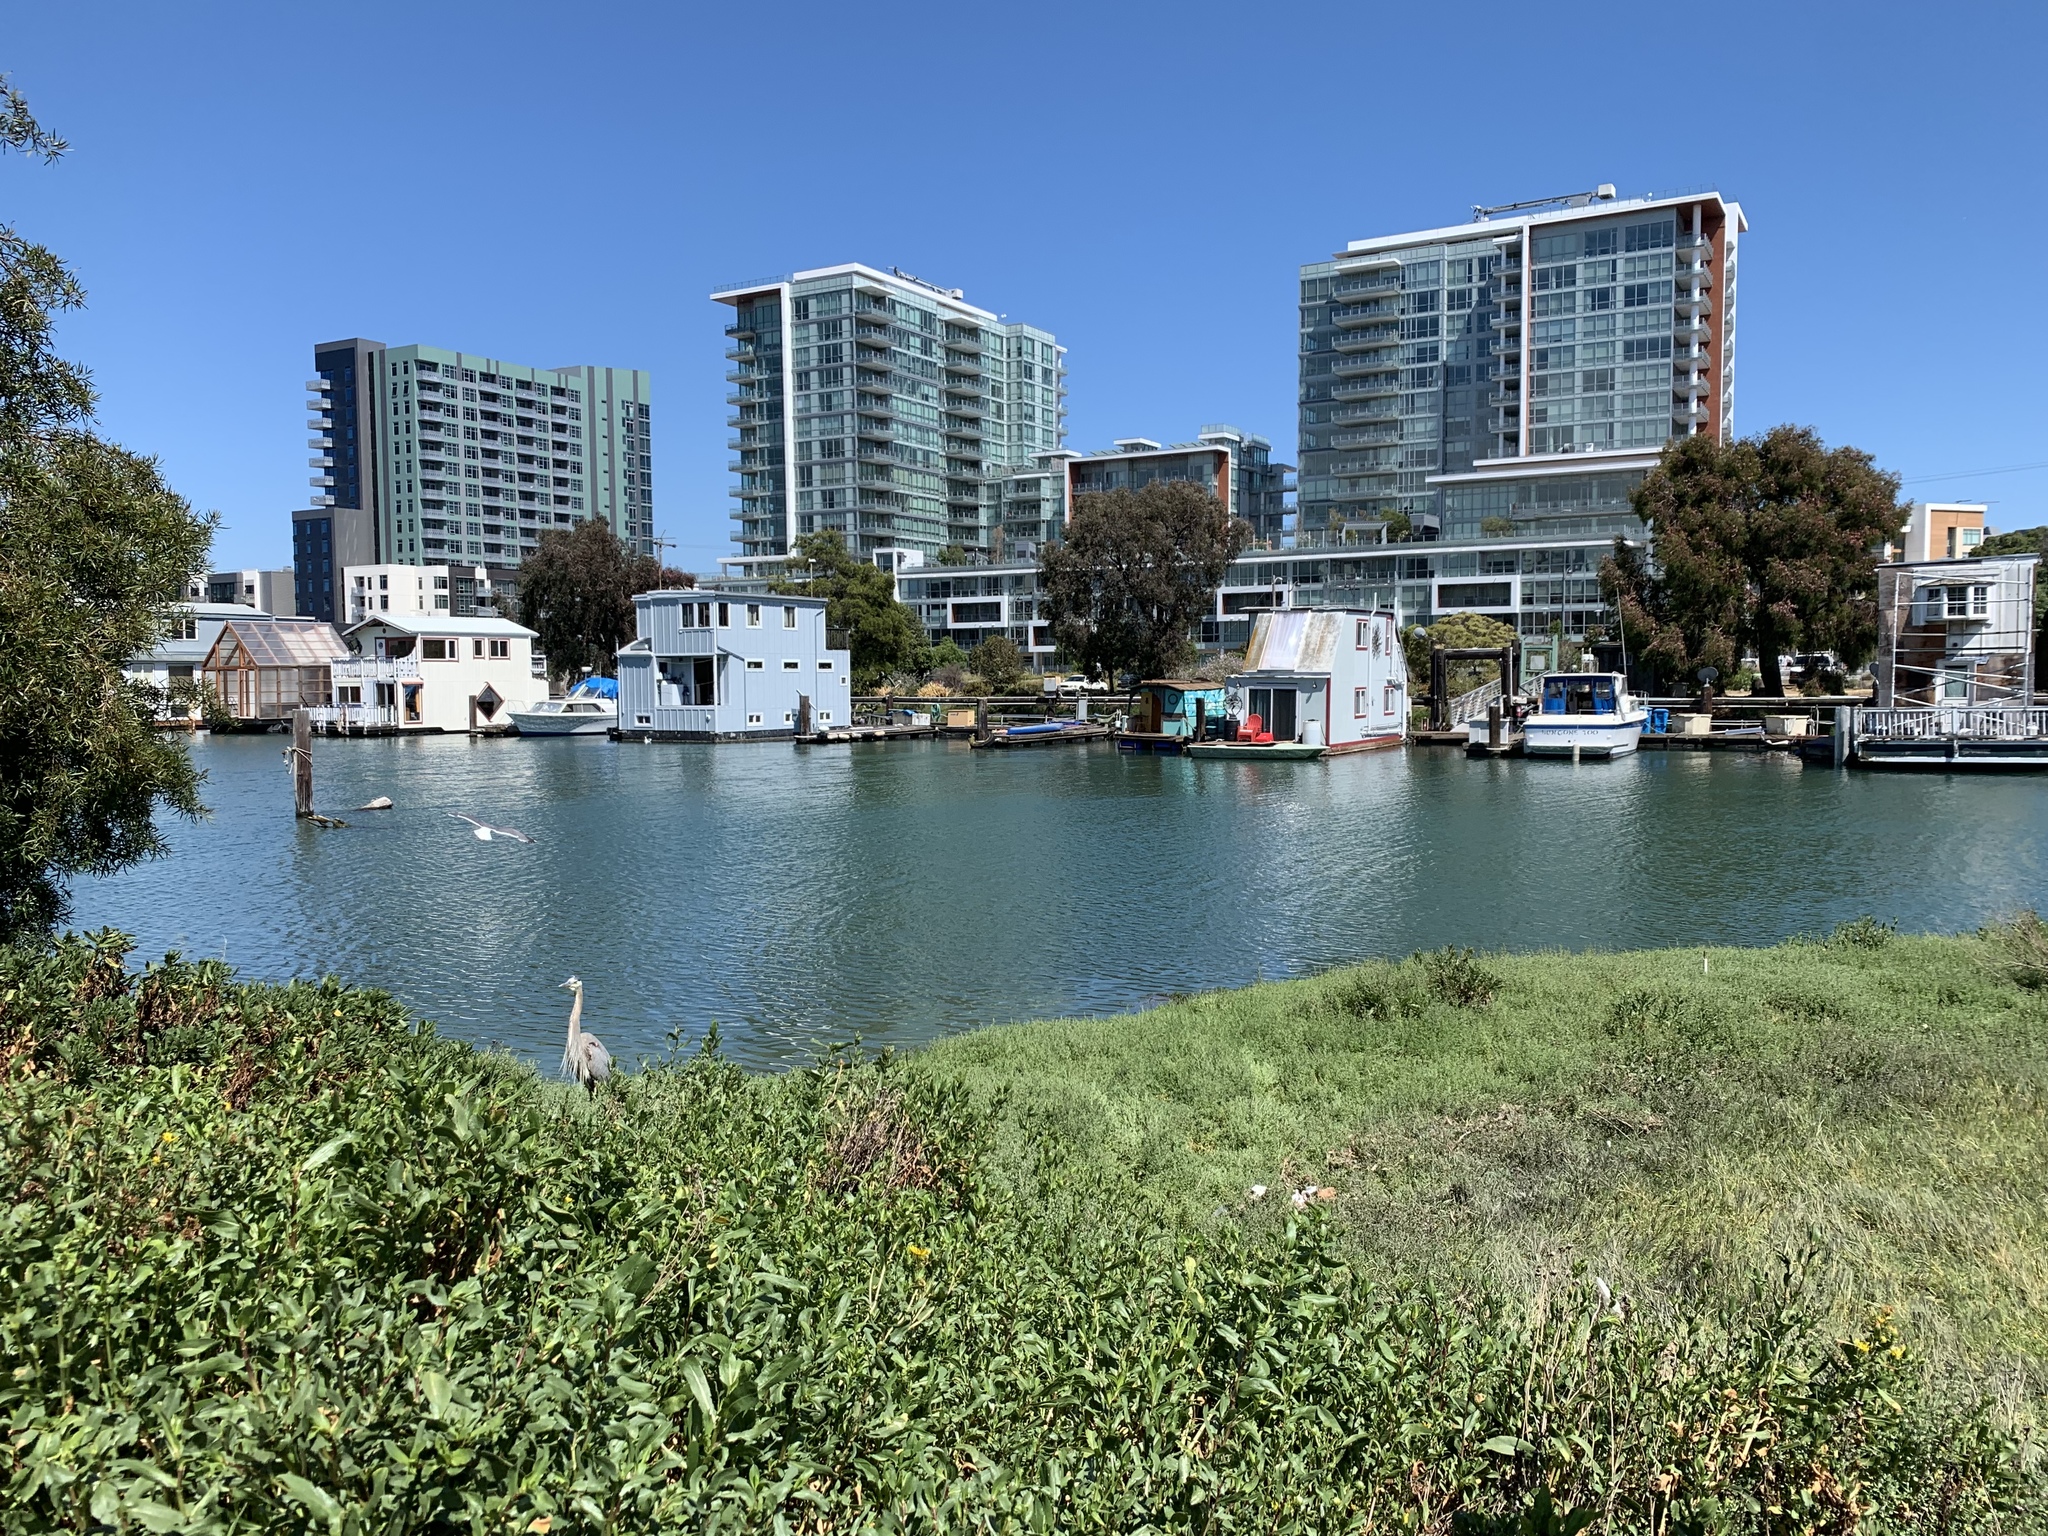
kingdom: Animalia
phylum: Chordata
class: Aves
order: Pelecaniformes
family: Ardeidae
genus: Ardea
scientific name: Ardea herodias
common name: Great blue heron
